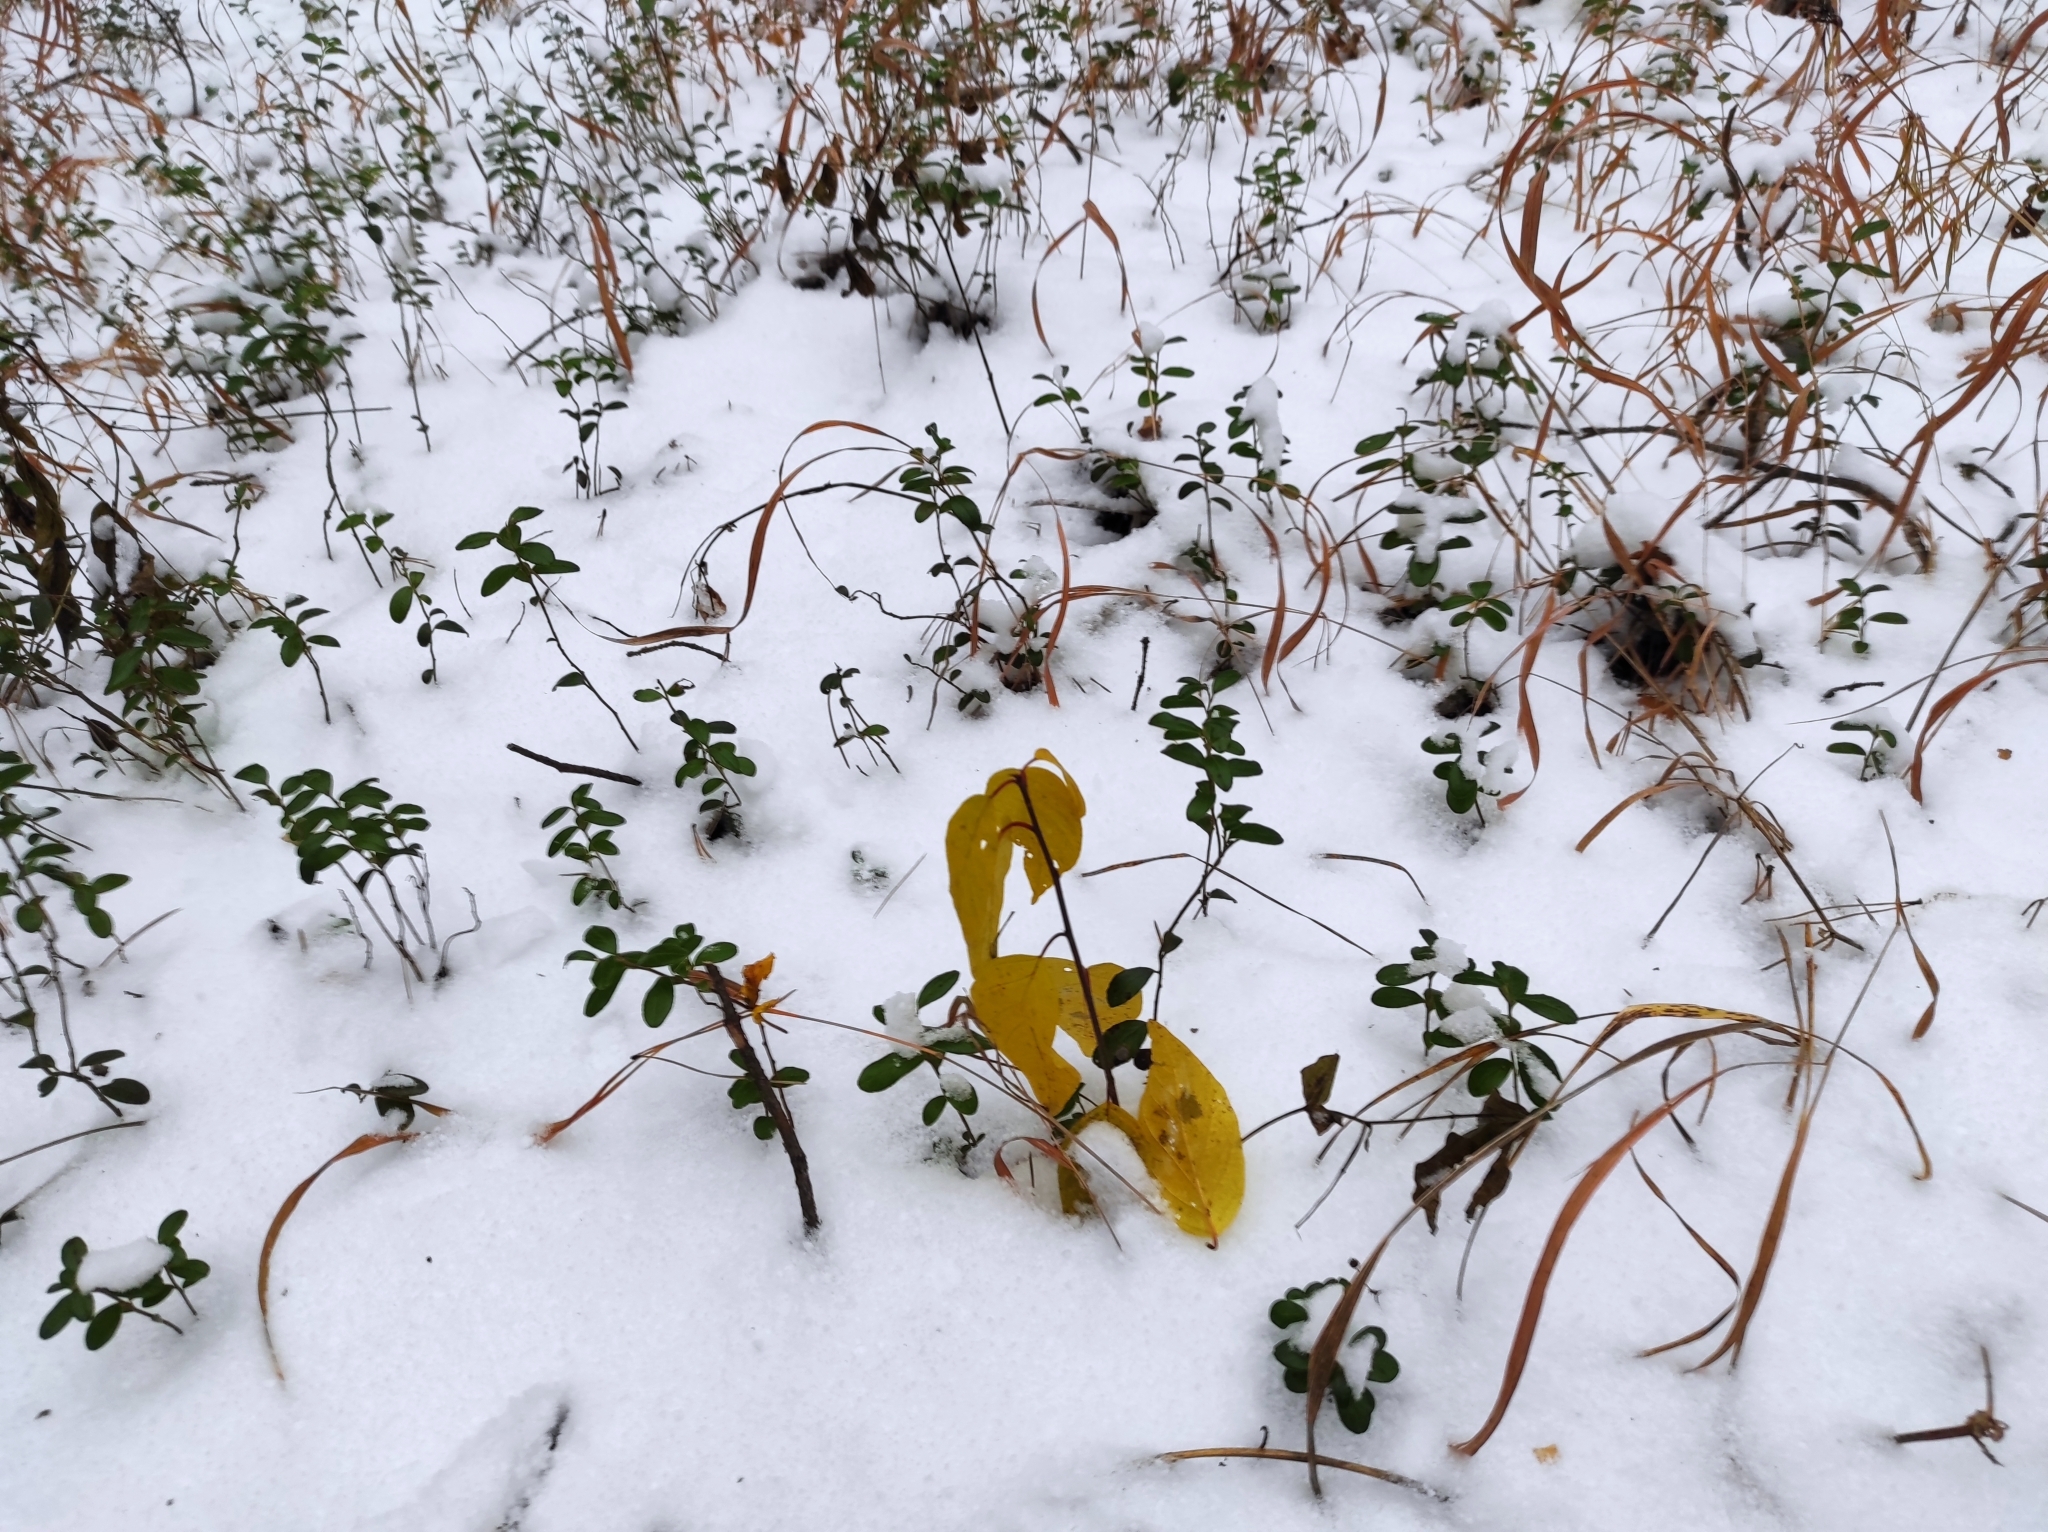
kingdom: Plantae
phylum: Tracheophyta
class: Magnoliopsida
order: Rosales
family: Rhamnaceae
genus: Frangula
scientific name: Frangula alnus
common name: Alder buckthorn
